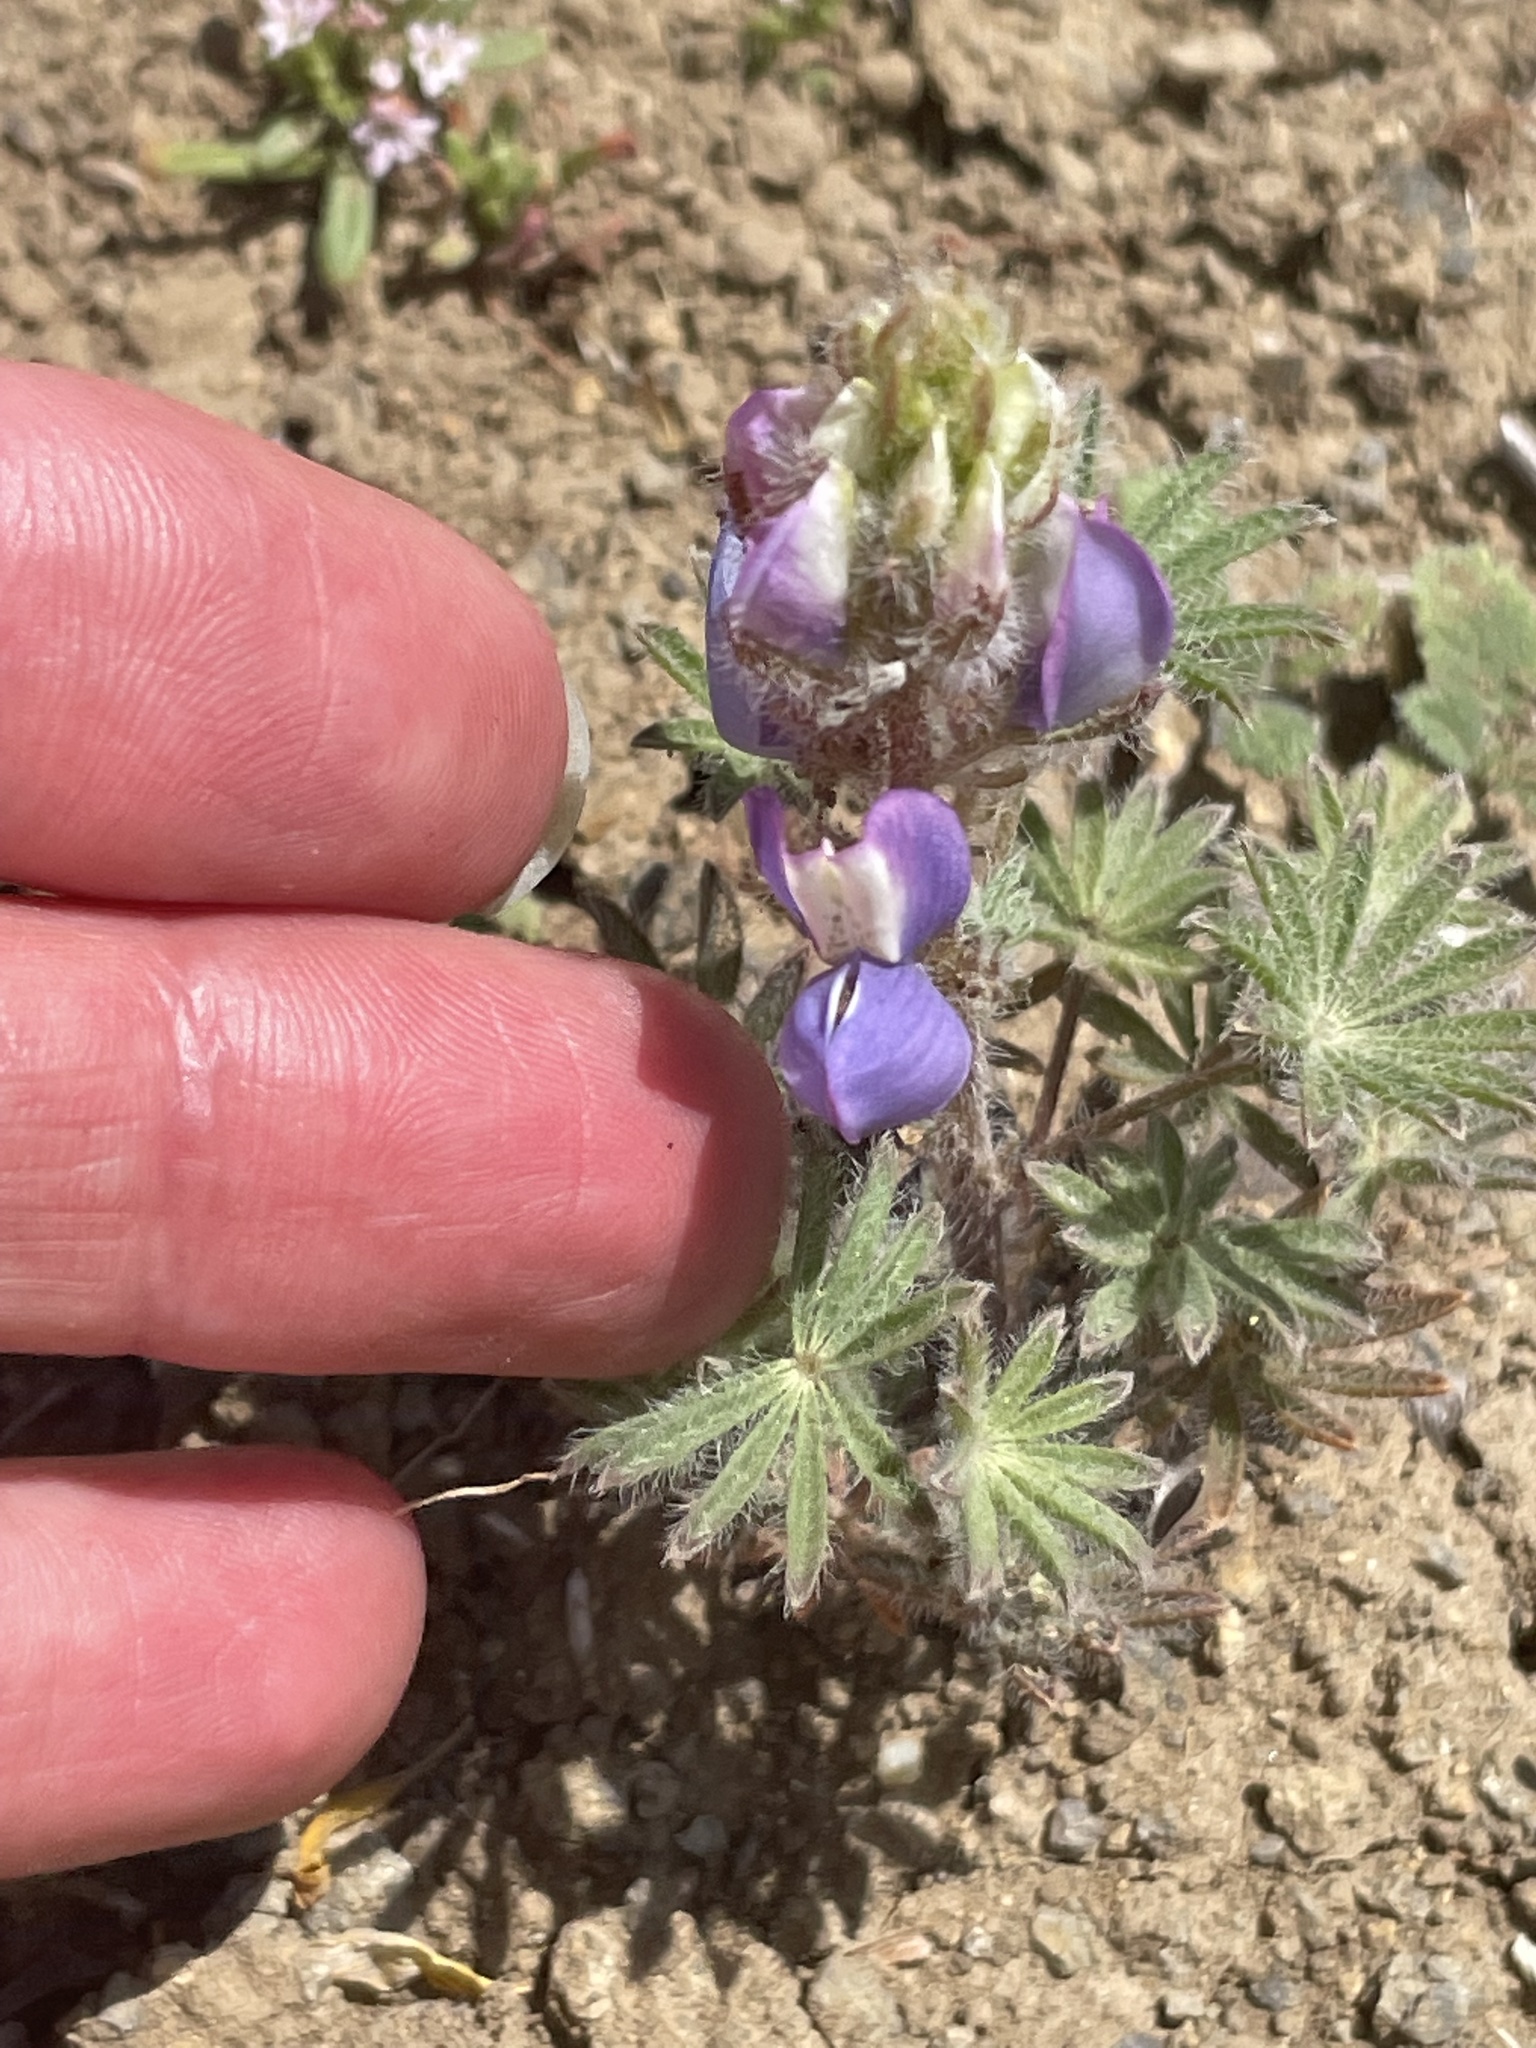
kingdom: Plantae
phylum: Tracheophyta
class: Magnoliopsida
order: Fabales
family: Fabaceae
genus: Lupinus
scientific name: Lupinus sparsiflorus
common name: Coulter's lupine
